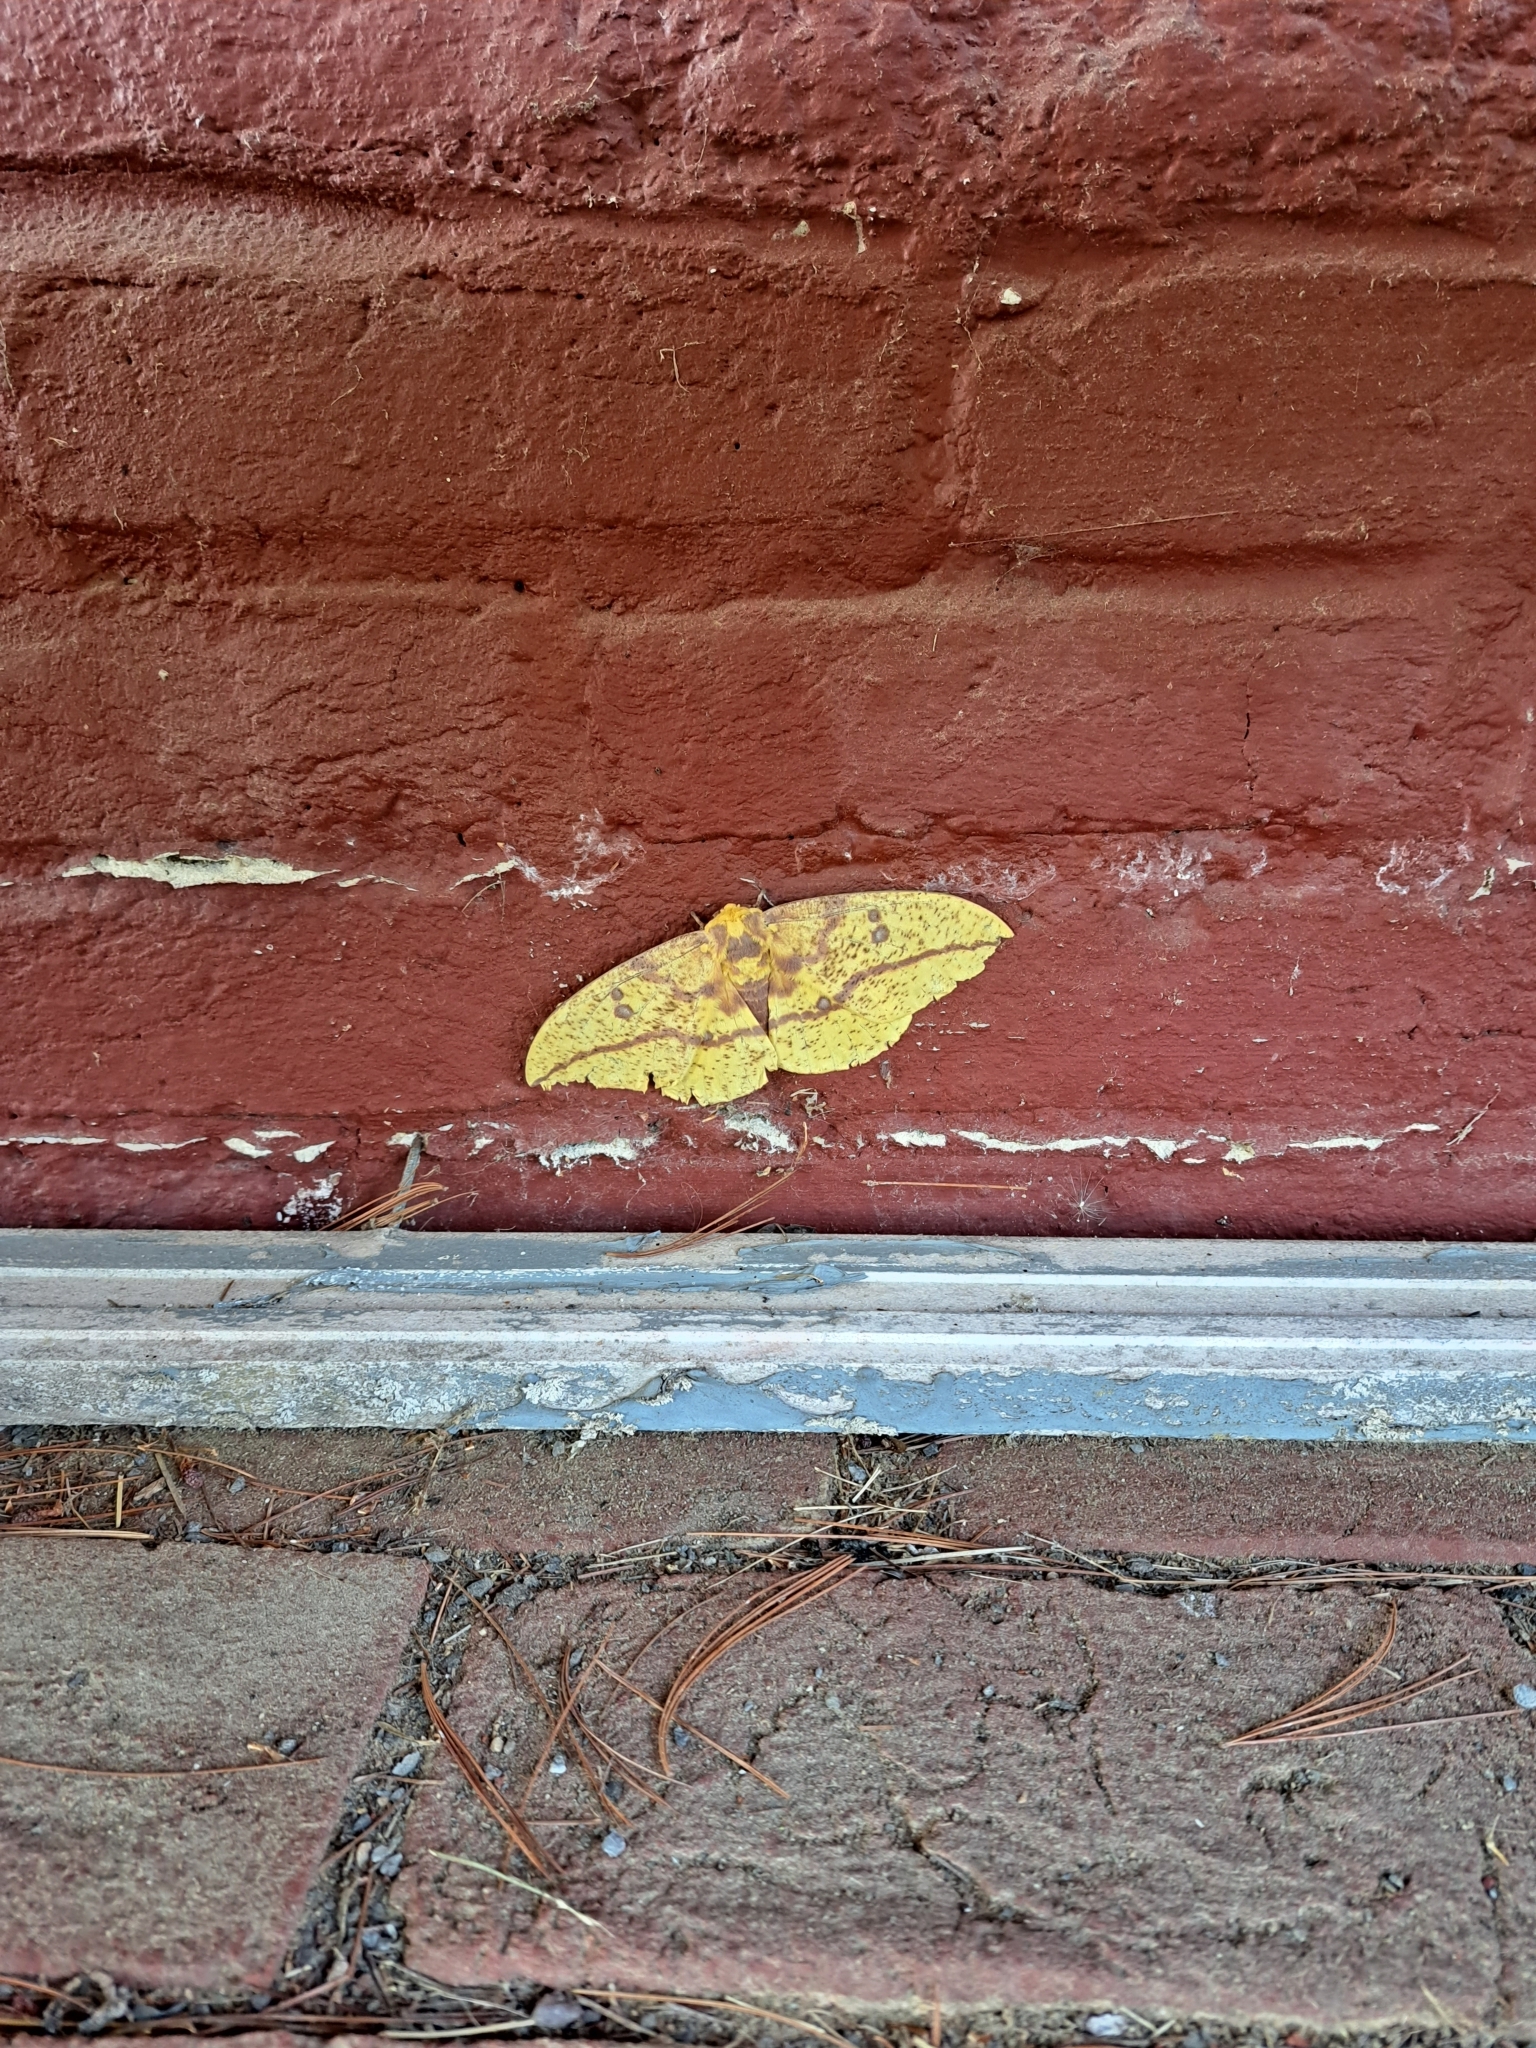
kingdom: Animalia
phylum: Arthropoda
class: Insecta
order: Lepidoptera
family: Saturniidae
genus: Eacles
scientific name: Eacles imperialis
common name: Imperial moth
